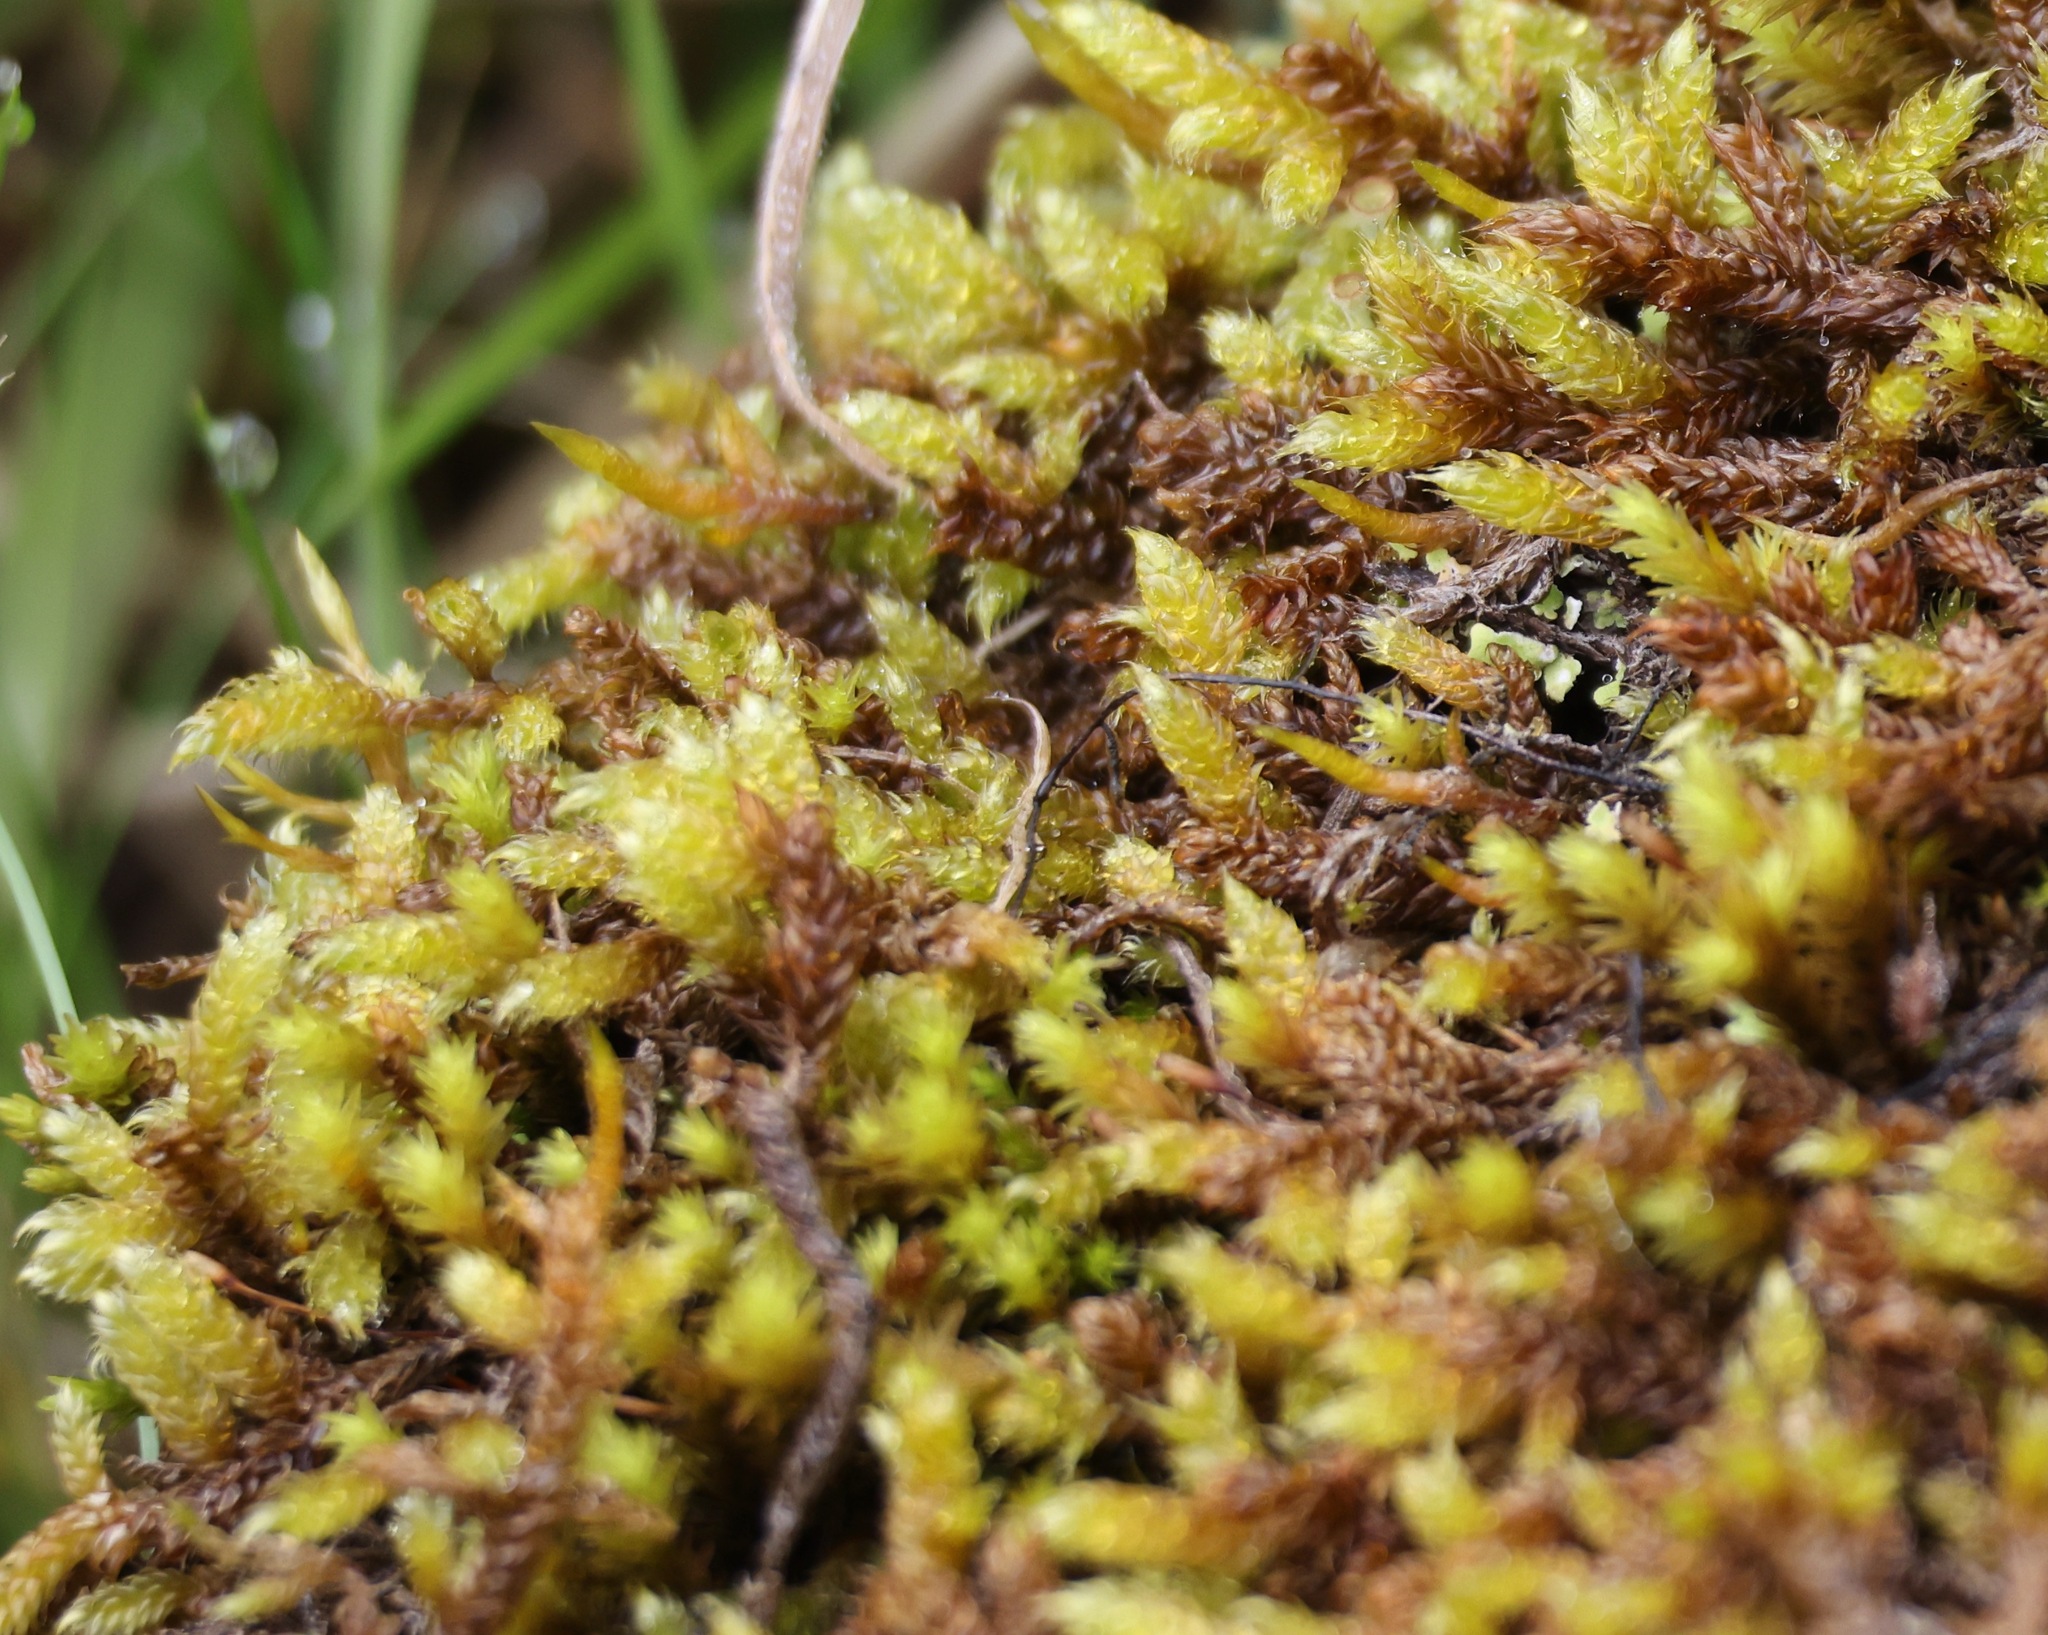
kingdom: Plantae
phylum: Bryophyta
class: Bryopsida
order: Hypnales
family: Hypnaceae
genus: Hypnum
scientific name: Hypnum cupressiforme
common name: Cypress-leaved plait-moss
